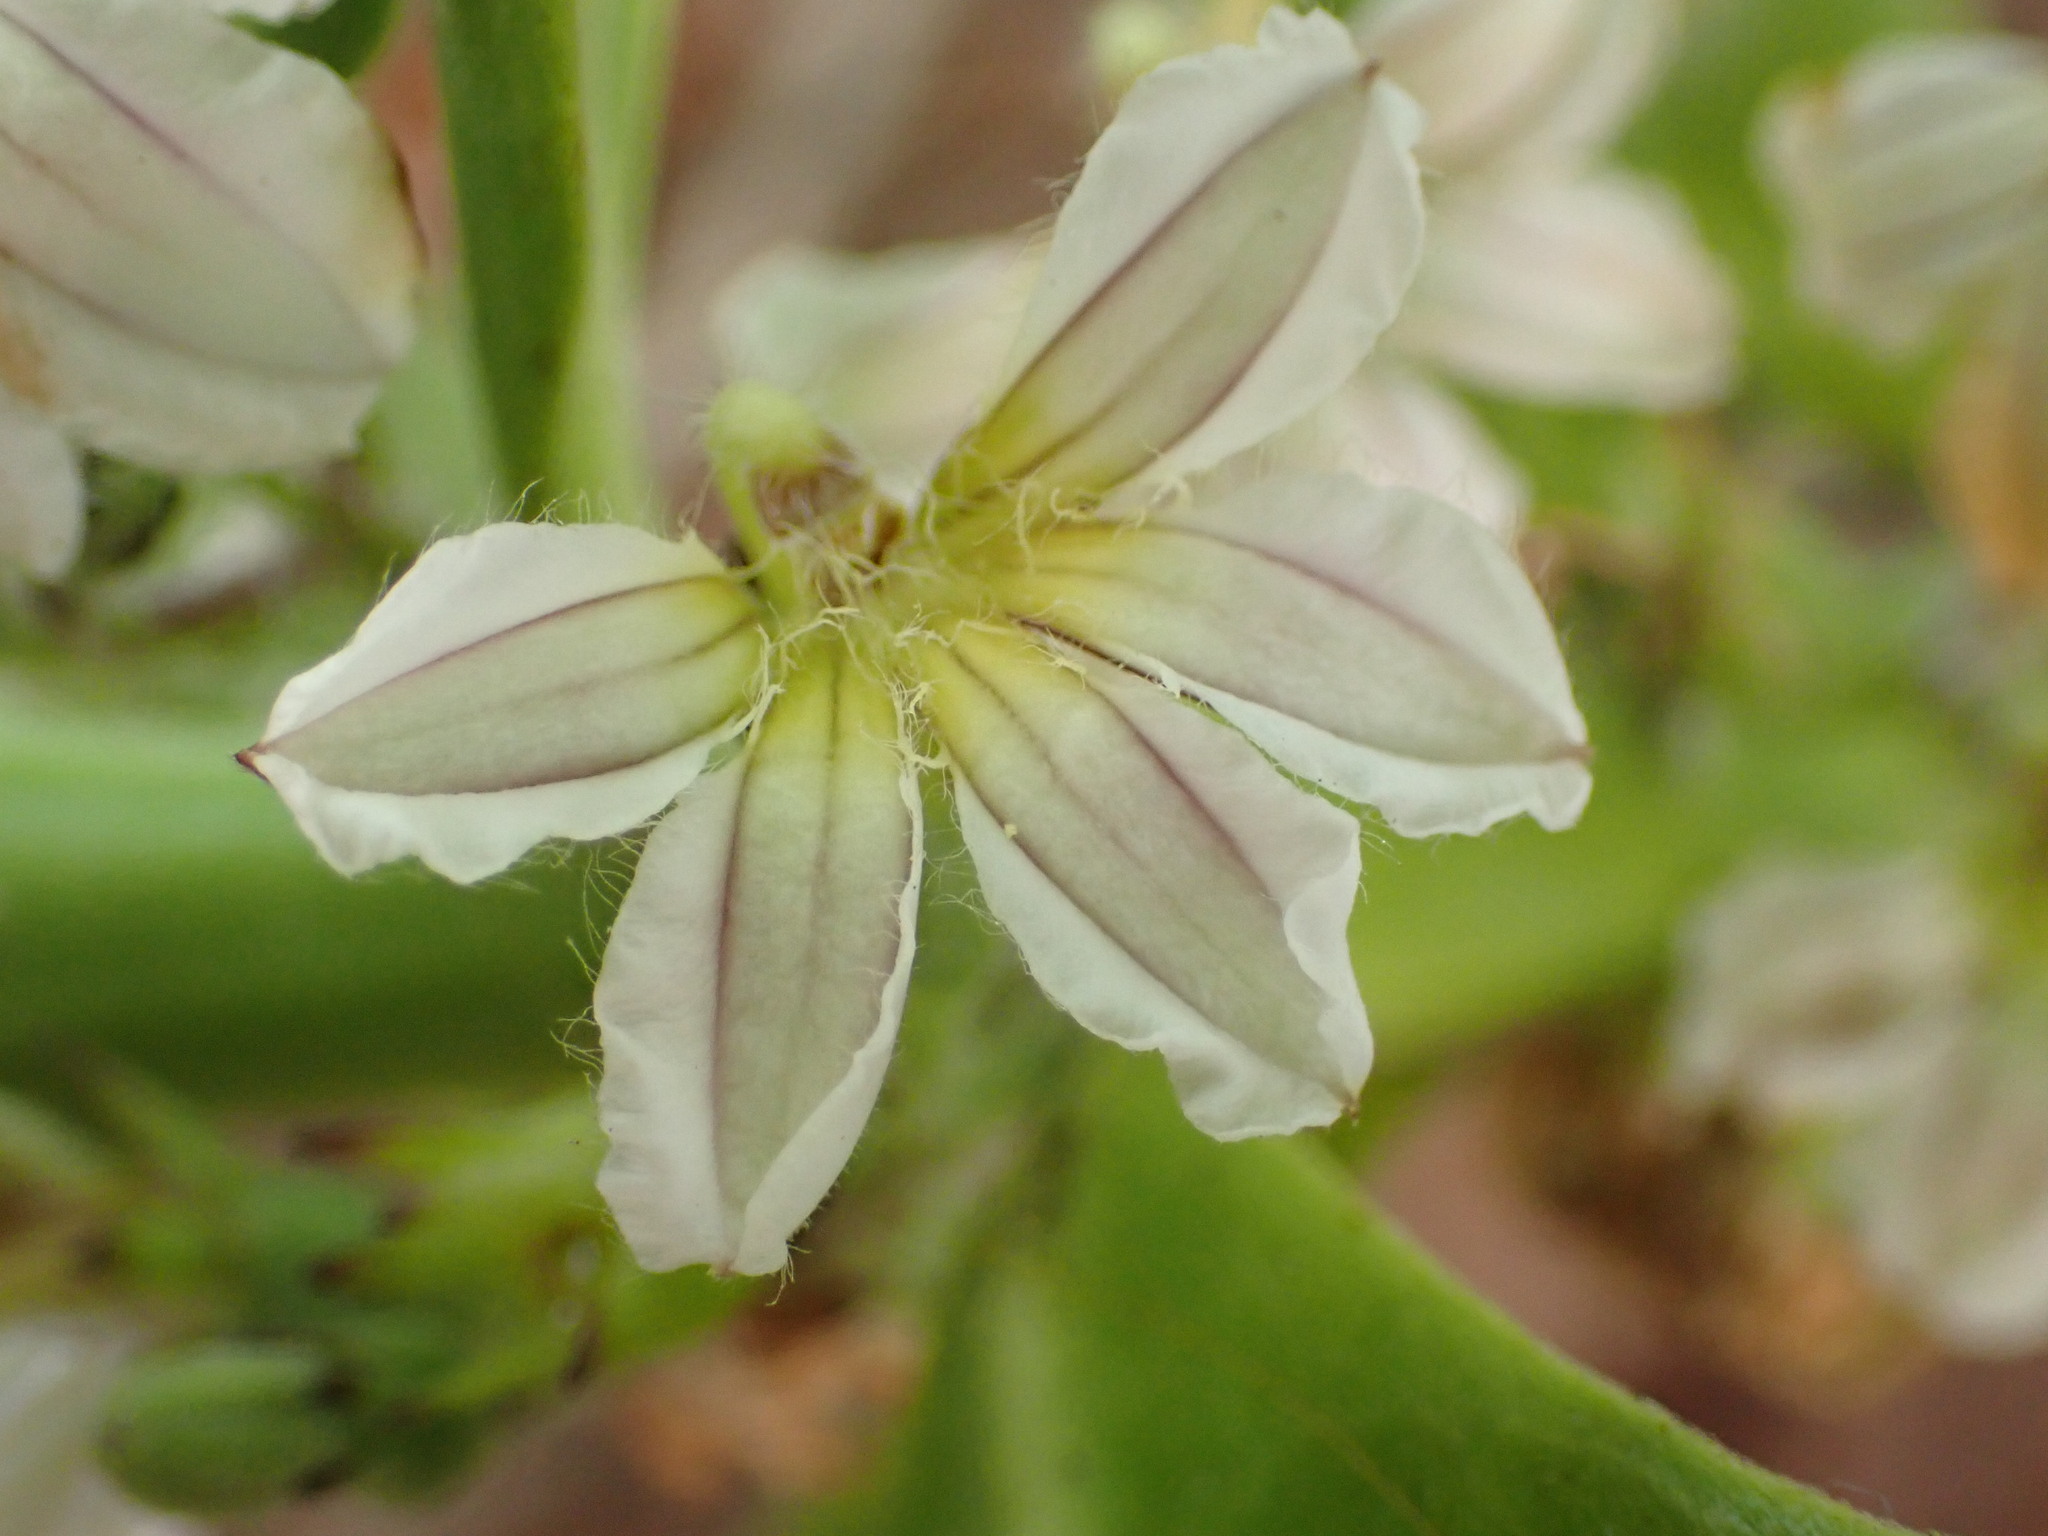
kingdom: Plantae
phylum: Tracheophyta
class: Magnoliopsida
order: Asterales
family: Goodeniaceae
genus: Scaevola
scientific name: Scaevola taccada
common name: Sea lettucetree
